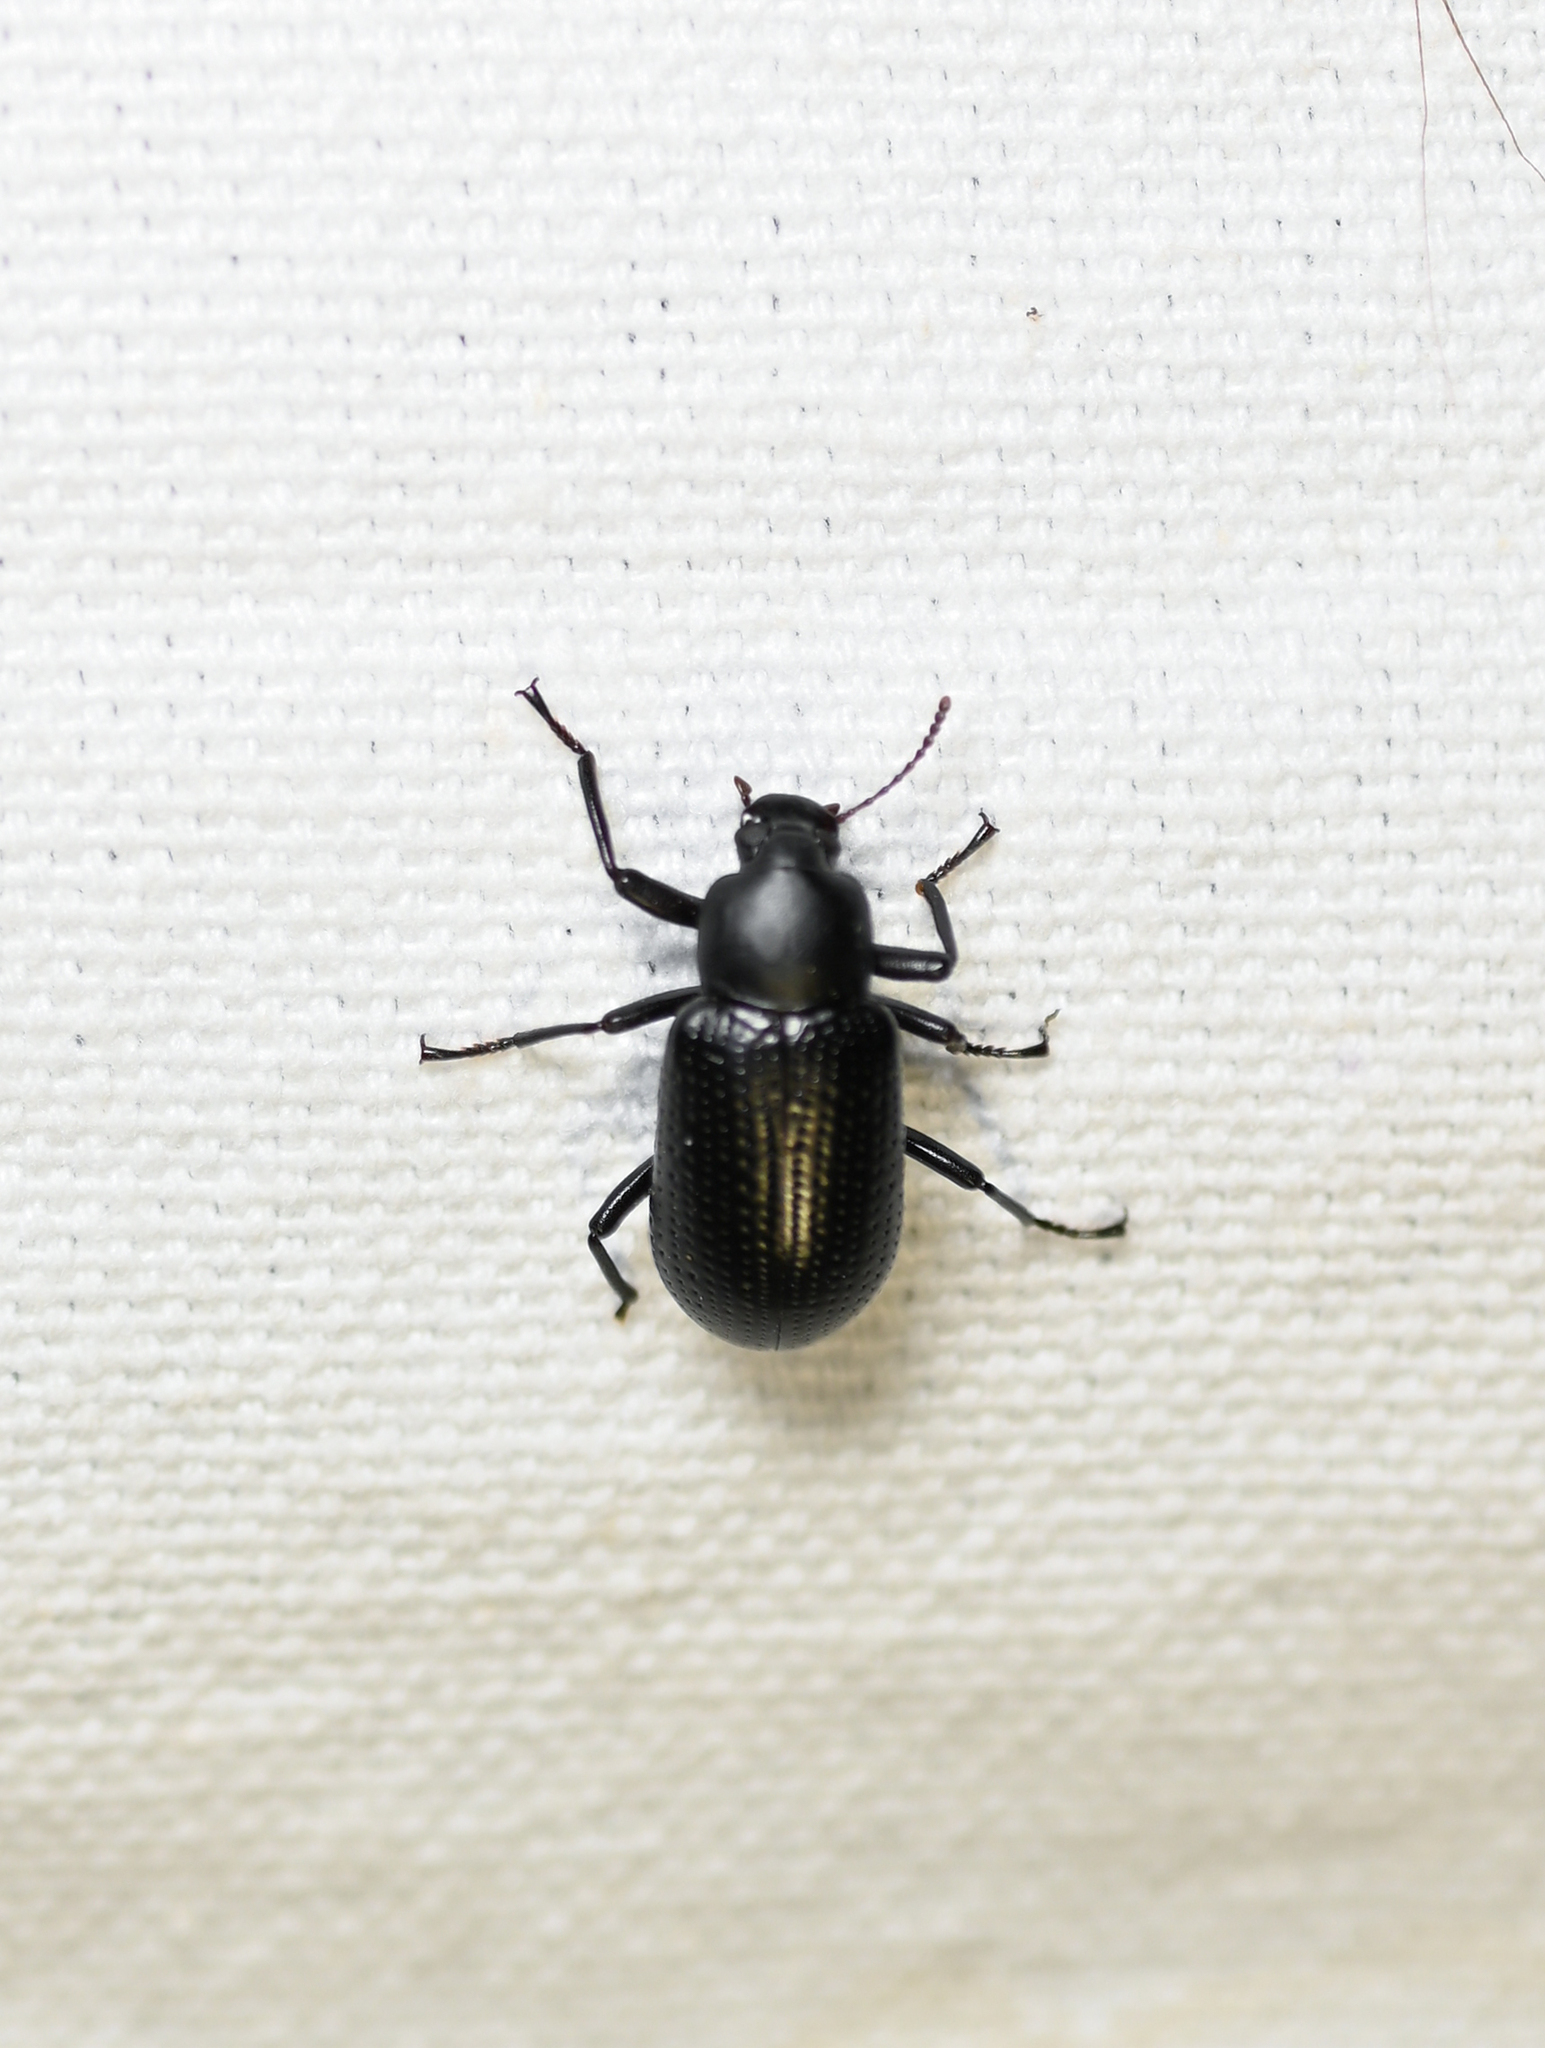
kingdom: Animalia
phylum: Arthropoda
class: Insecta
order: Coleoptera
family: Tenebrionidae
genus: Glyptotus
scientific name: Glyptotus cribratus
